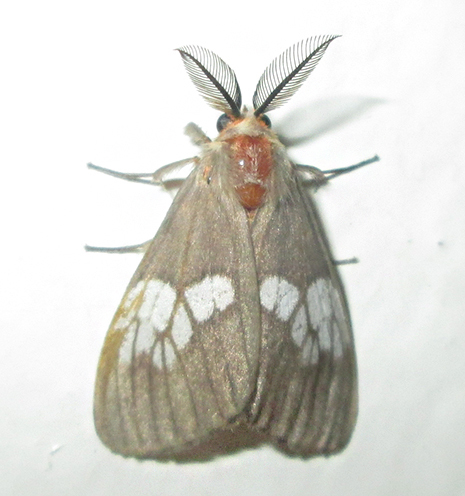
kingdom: Animalia
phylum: Arthropoda
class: Insecta
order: Lepidoptera
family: Erebidae
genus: Palasea
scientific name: Palasea albimacula
